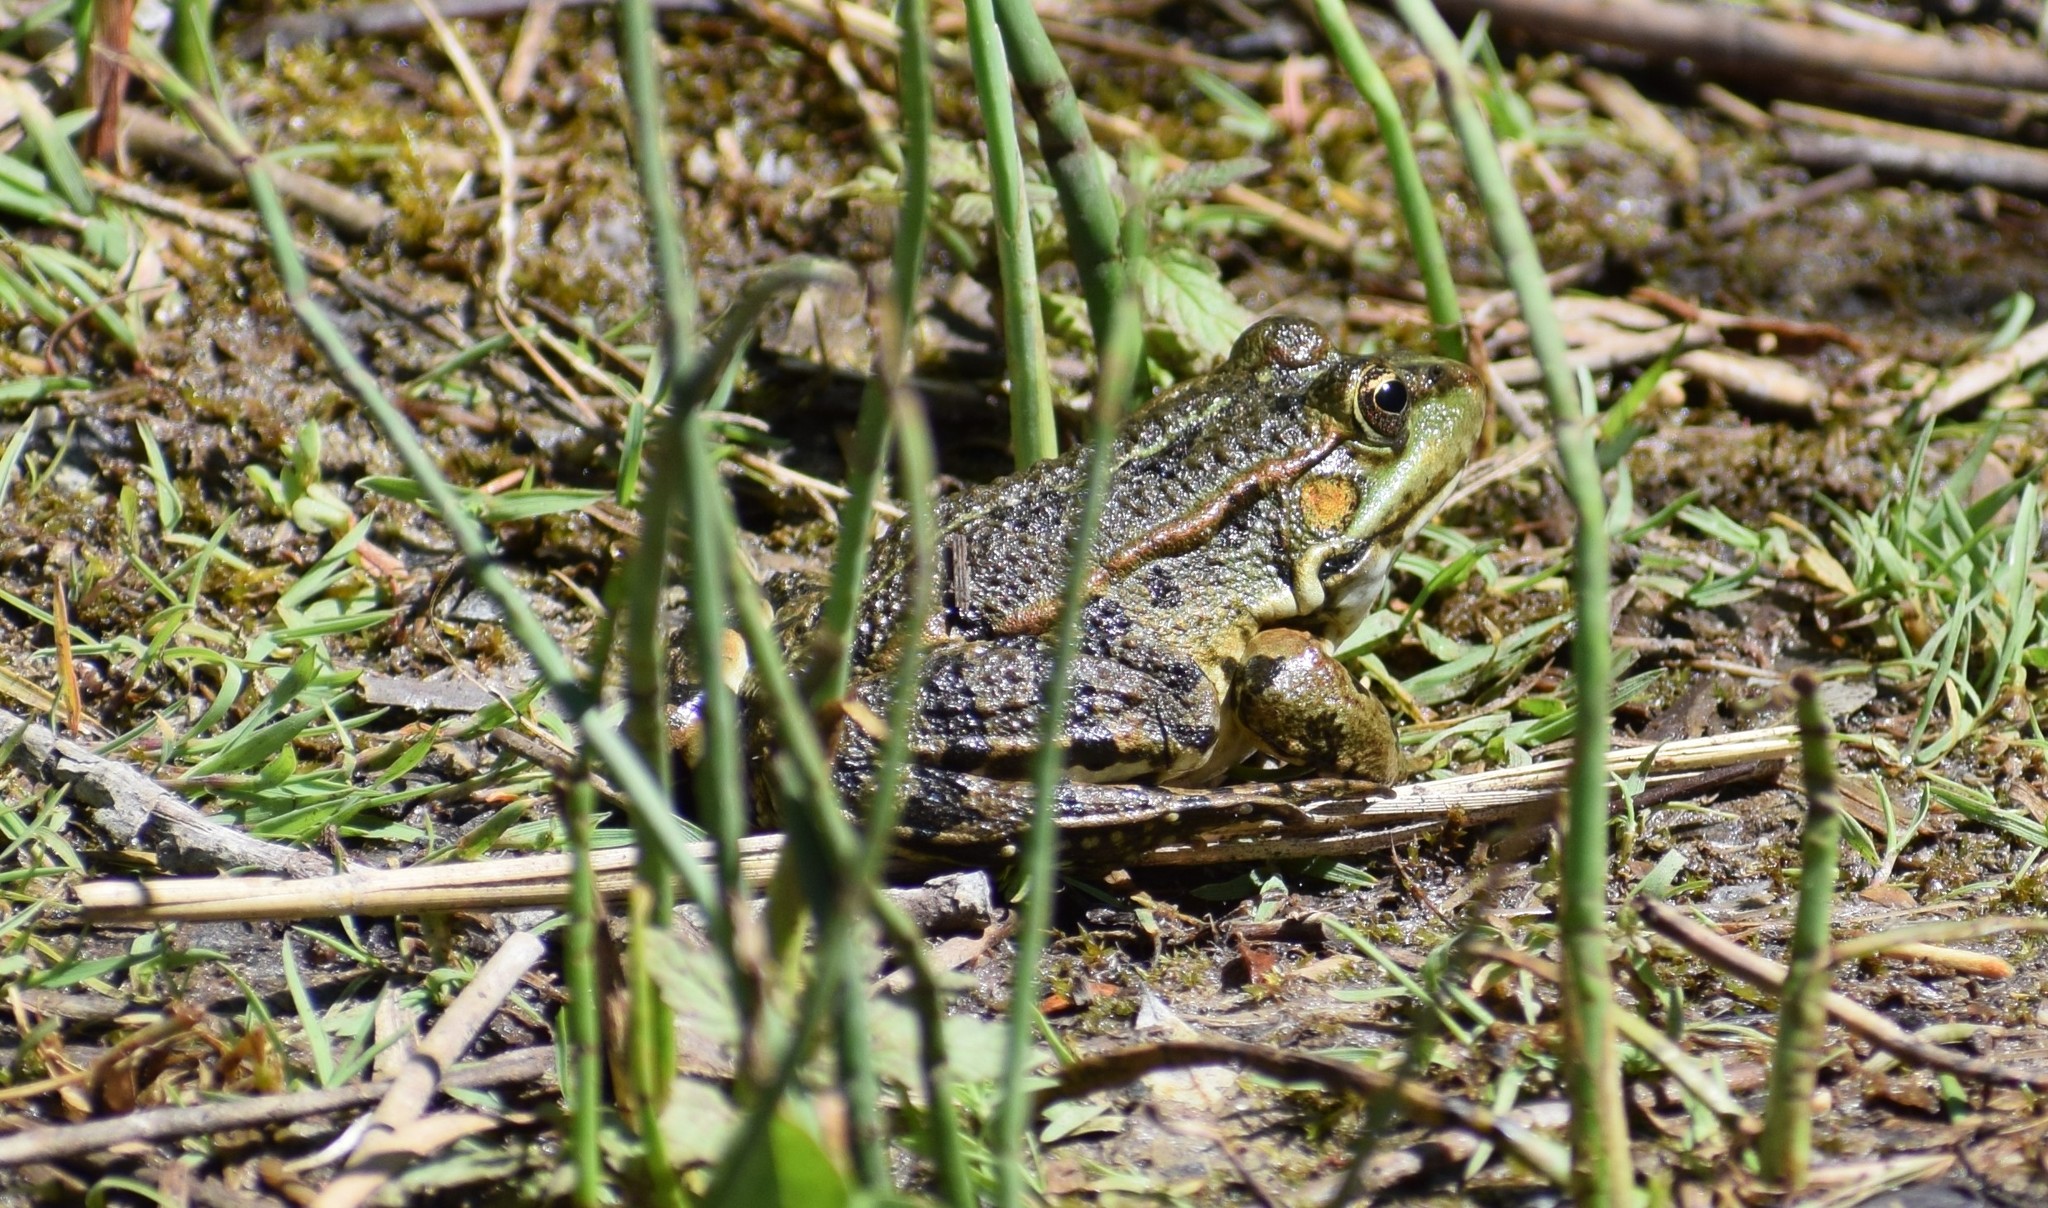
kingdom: Animalia
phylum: Chordata
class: Amphibia
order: Anura
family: Ranidae
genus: Pelophylax
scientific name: Pelophylax
